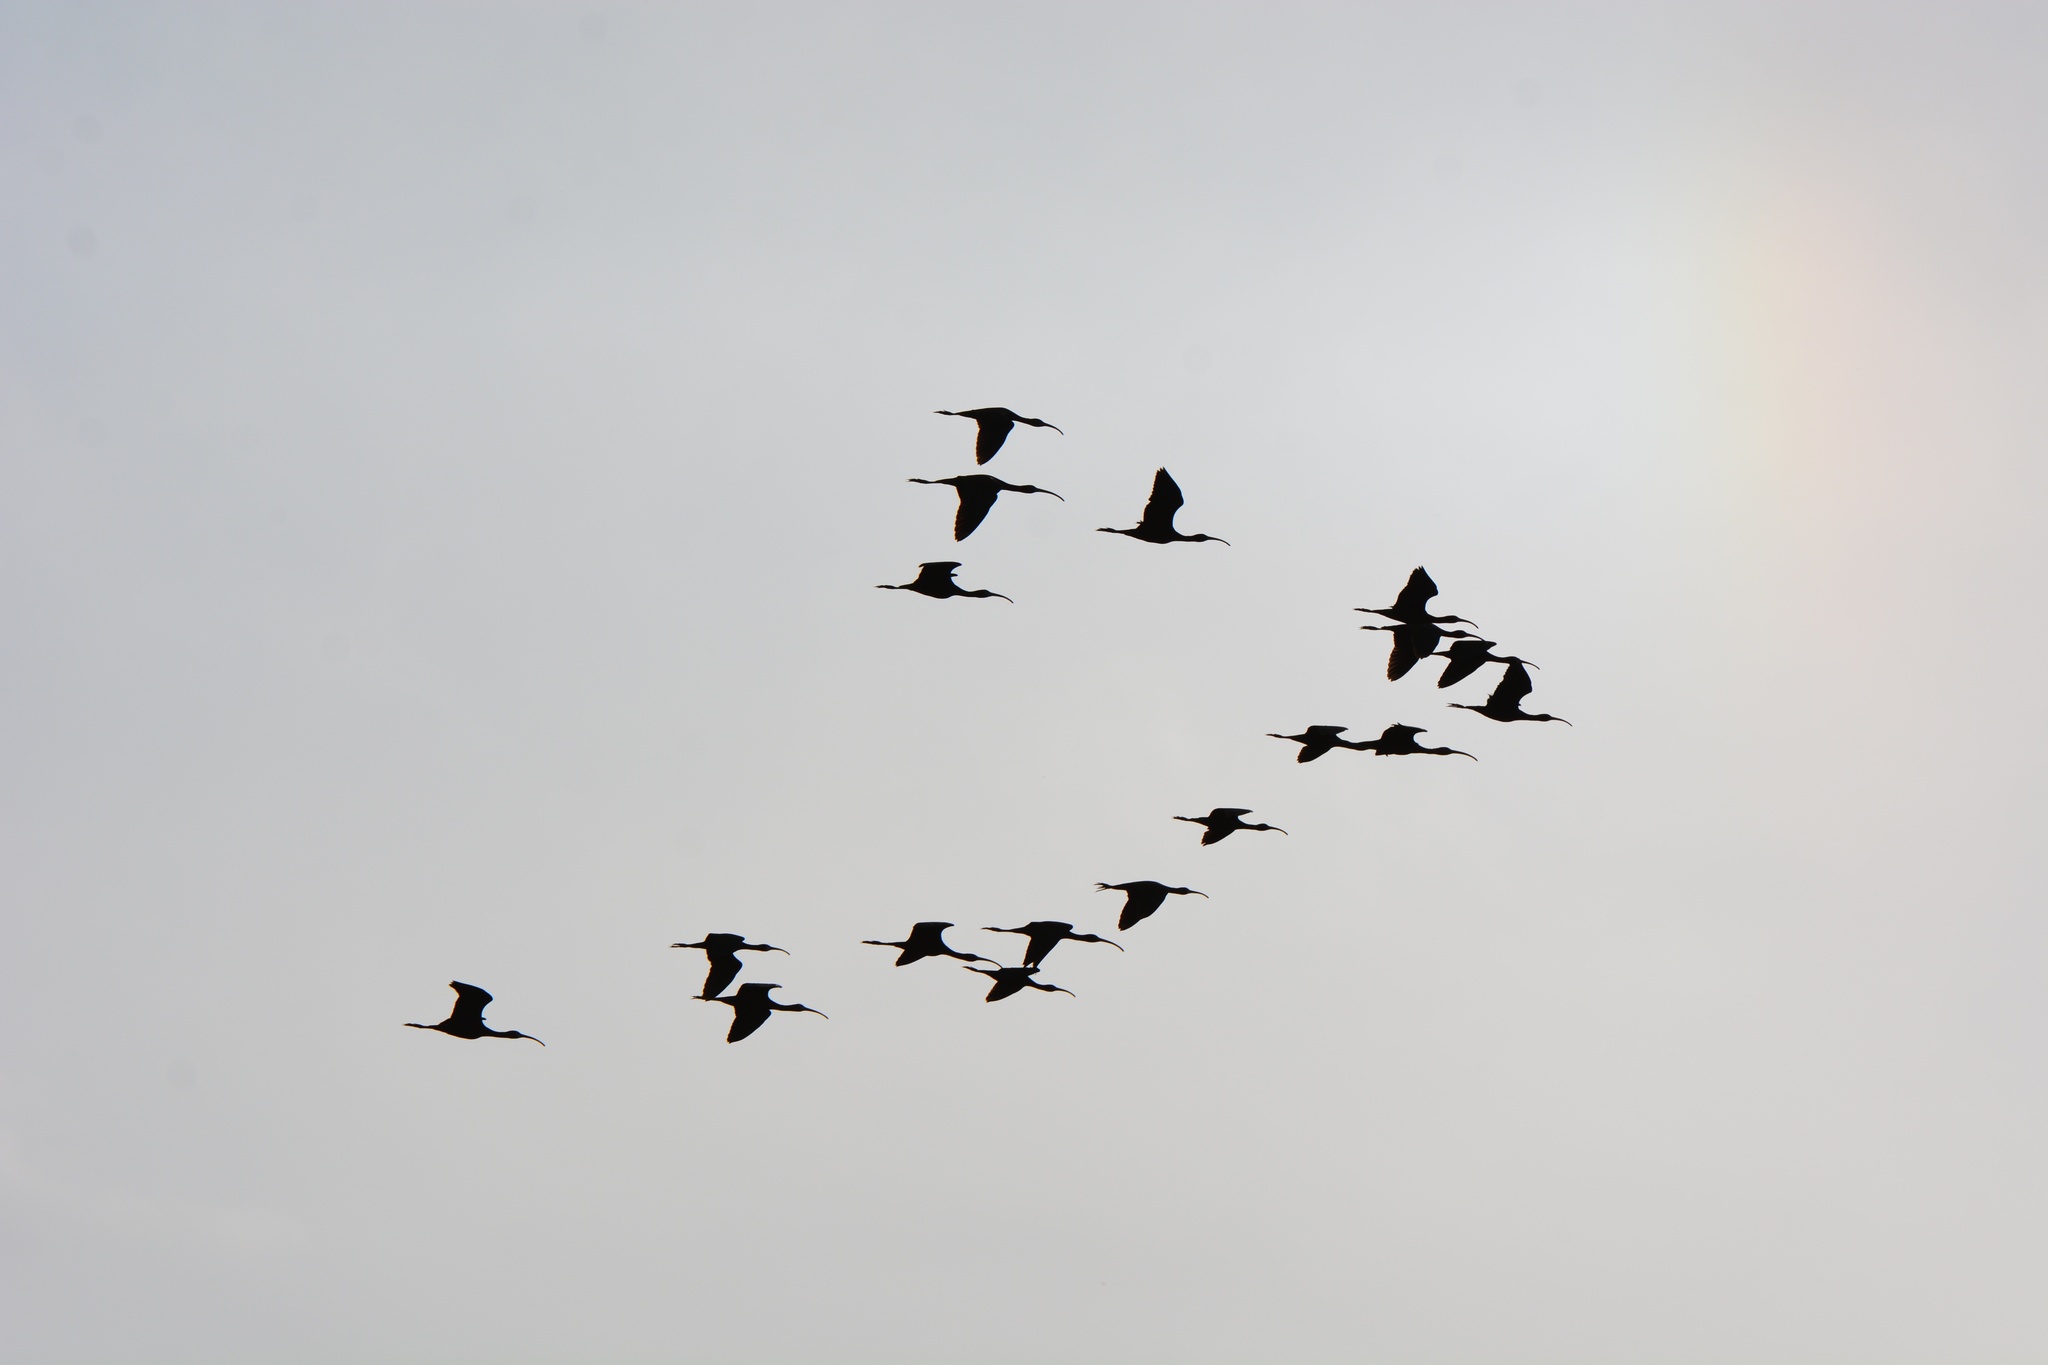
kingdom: Animalia
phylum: Chordata
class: Aves
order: Pelecaniformes
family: Threskiornithidae
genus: Plegadis
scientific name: Plegadis chihi
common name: White-faced ibis
